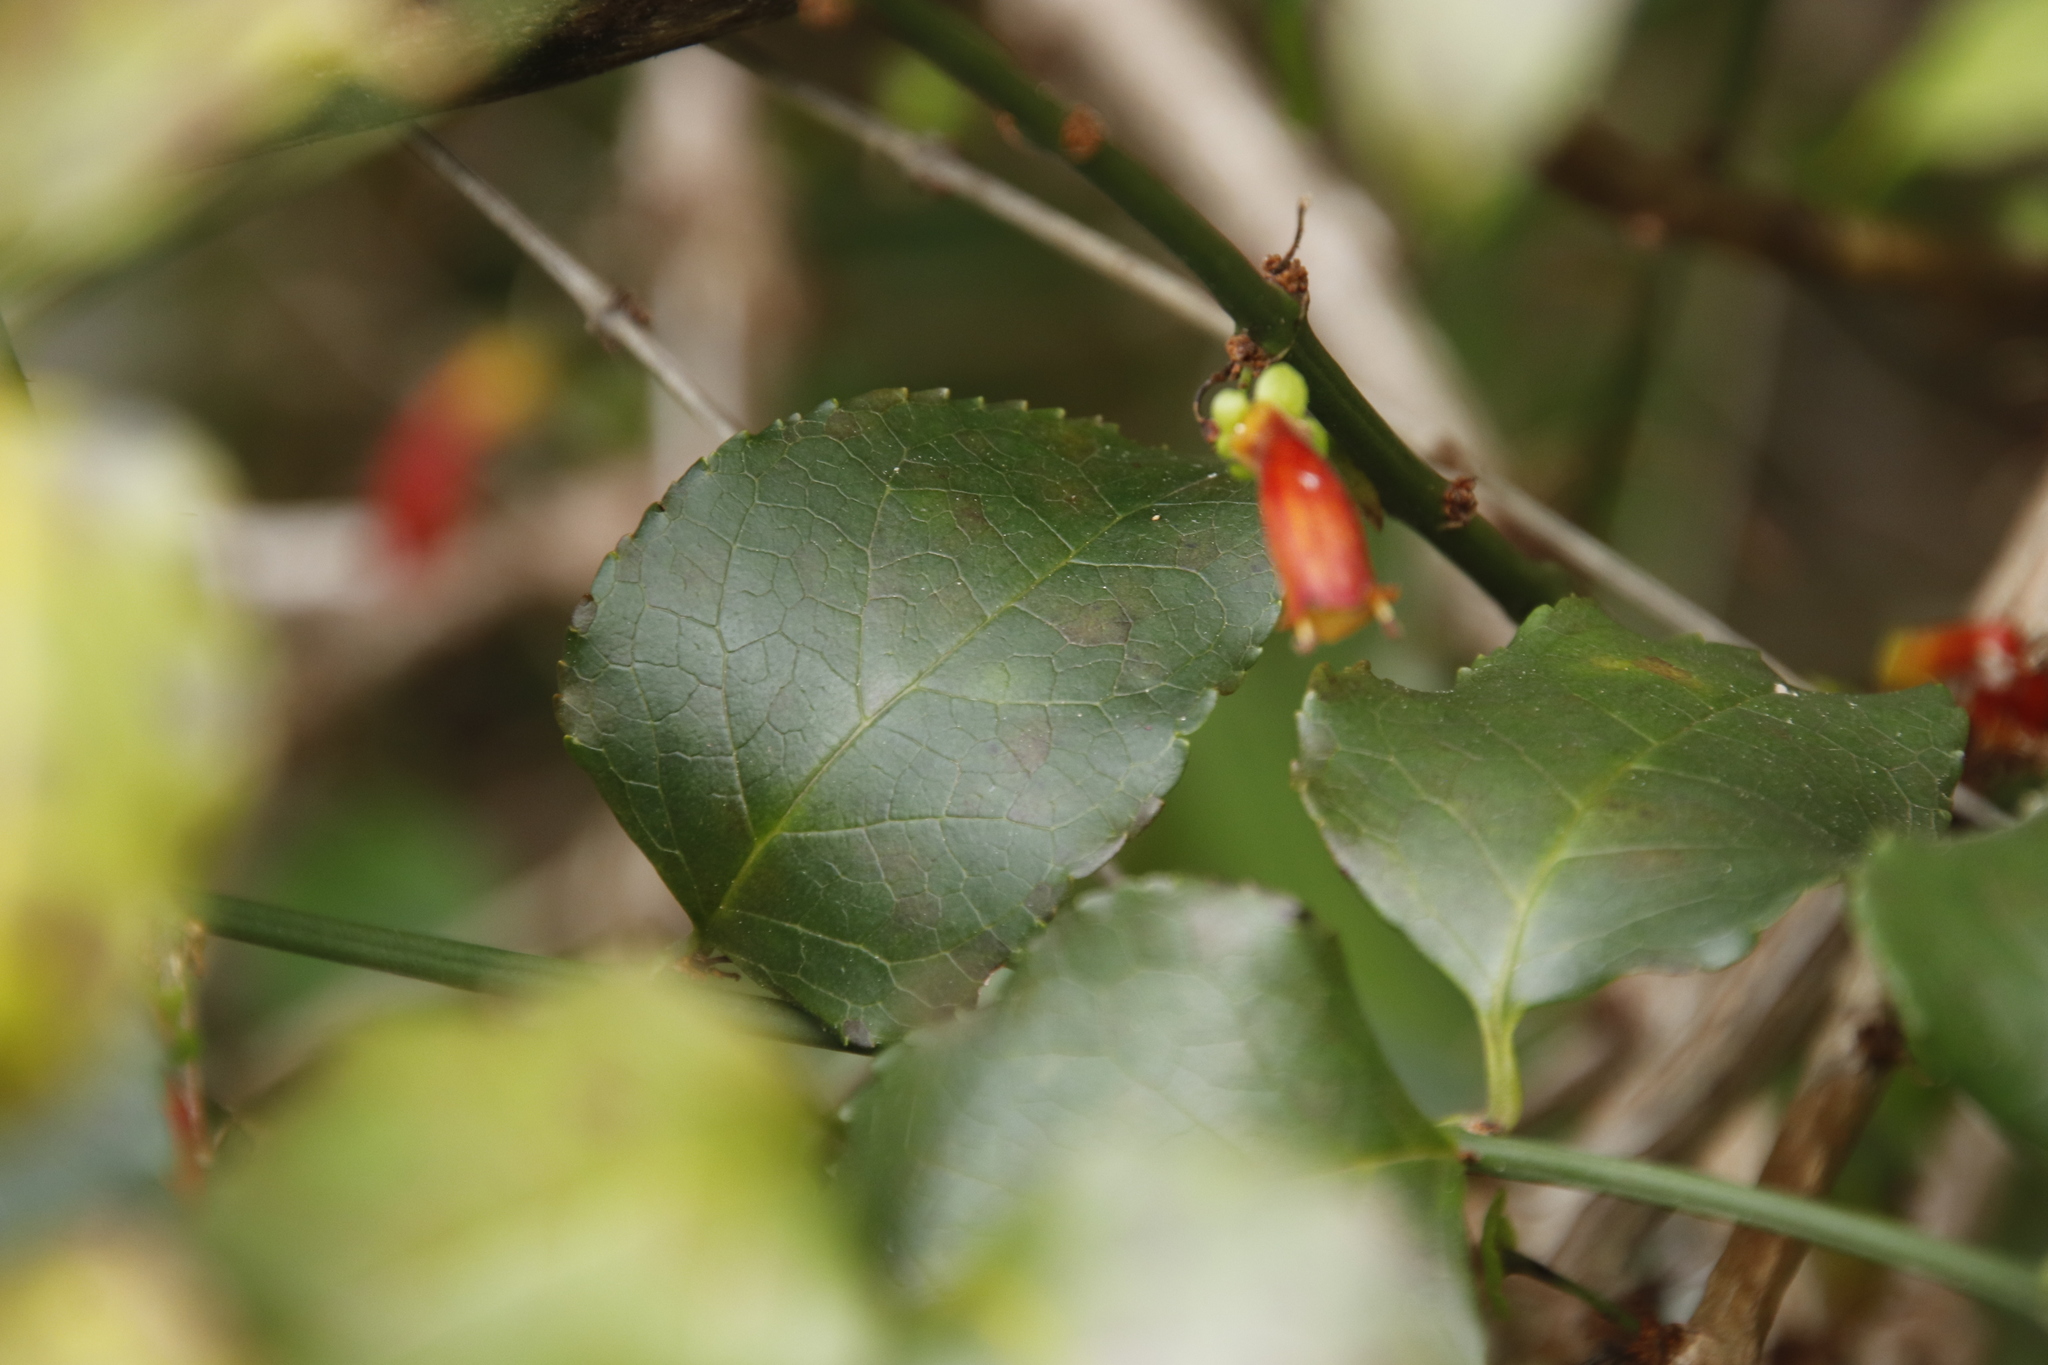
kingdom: Plantae
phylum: Tracheophyta
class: Magnoliopsida
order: Lamiales
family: Stilbaceae
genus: Halleria
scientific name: Halleria lucida
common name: Tree fuschia
